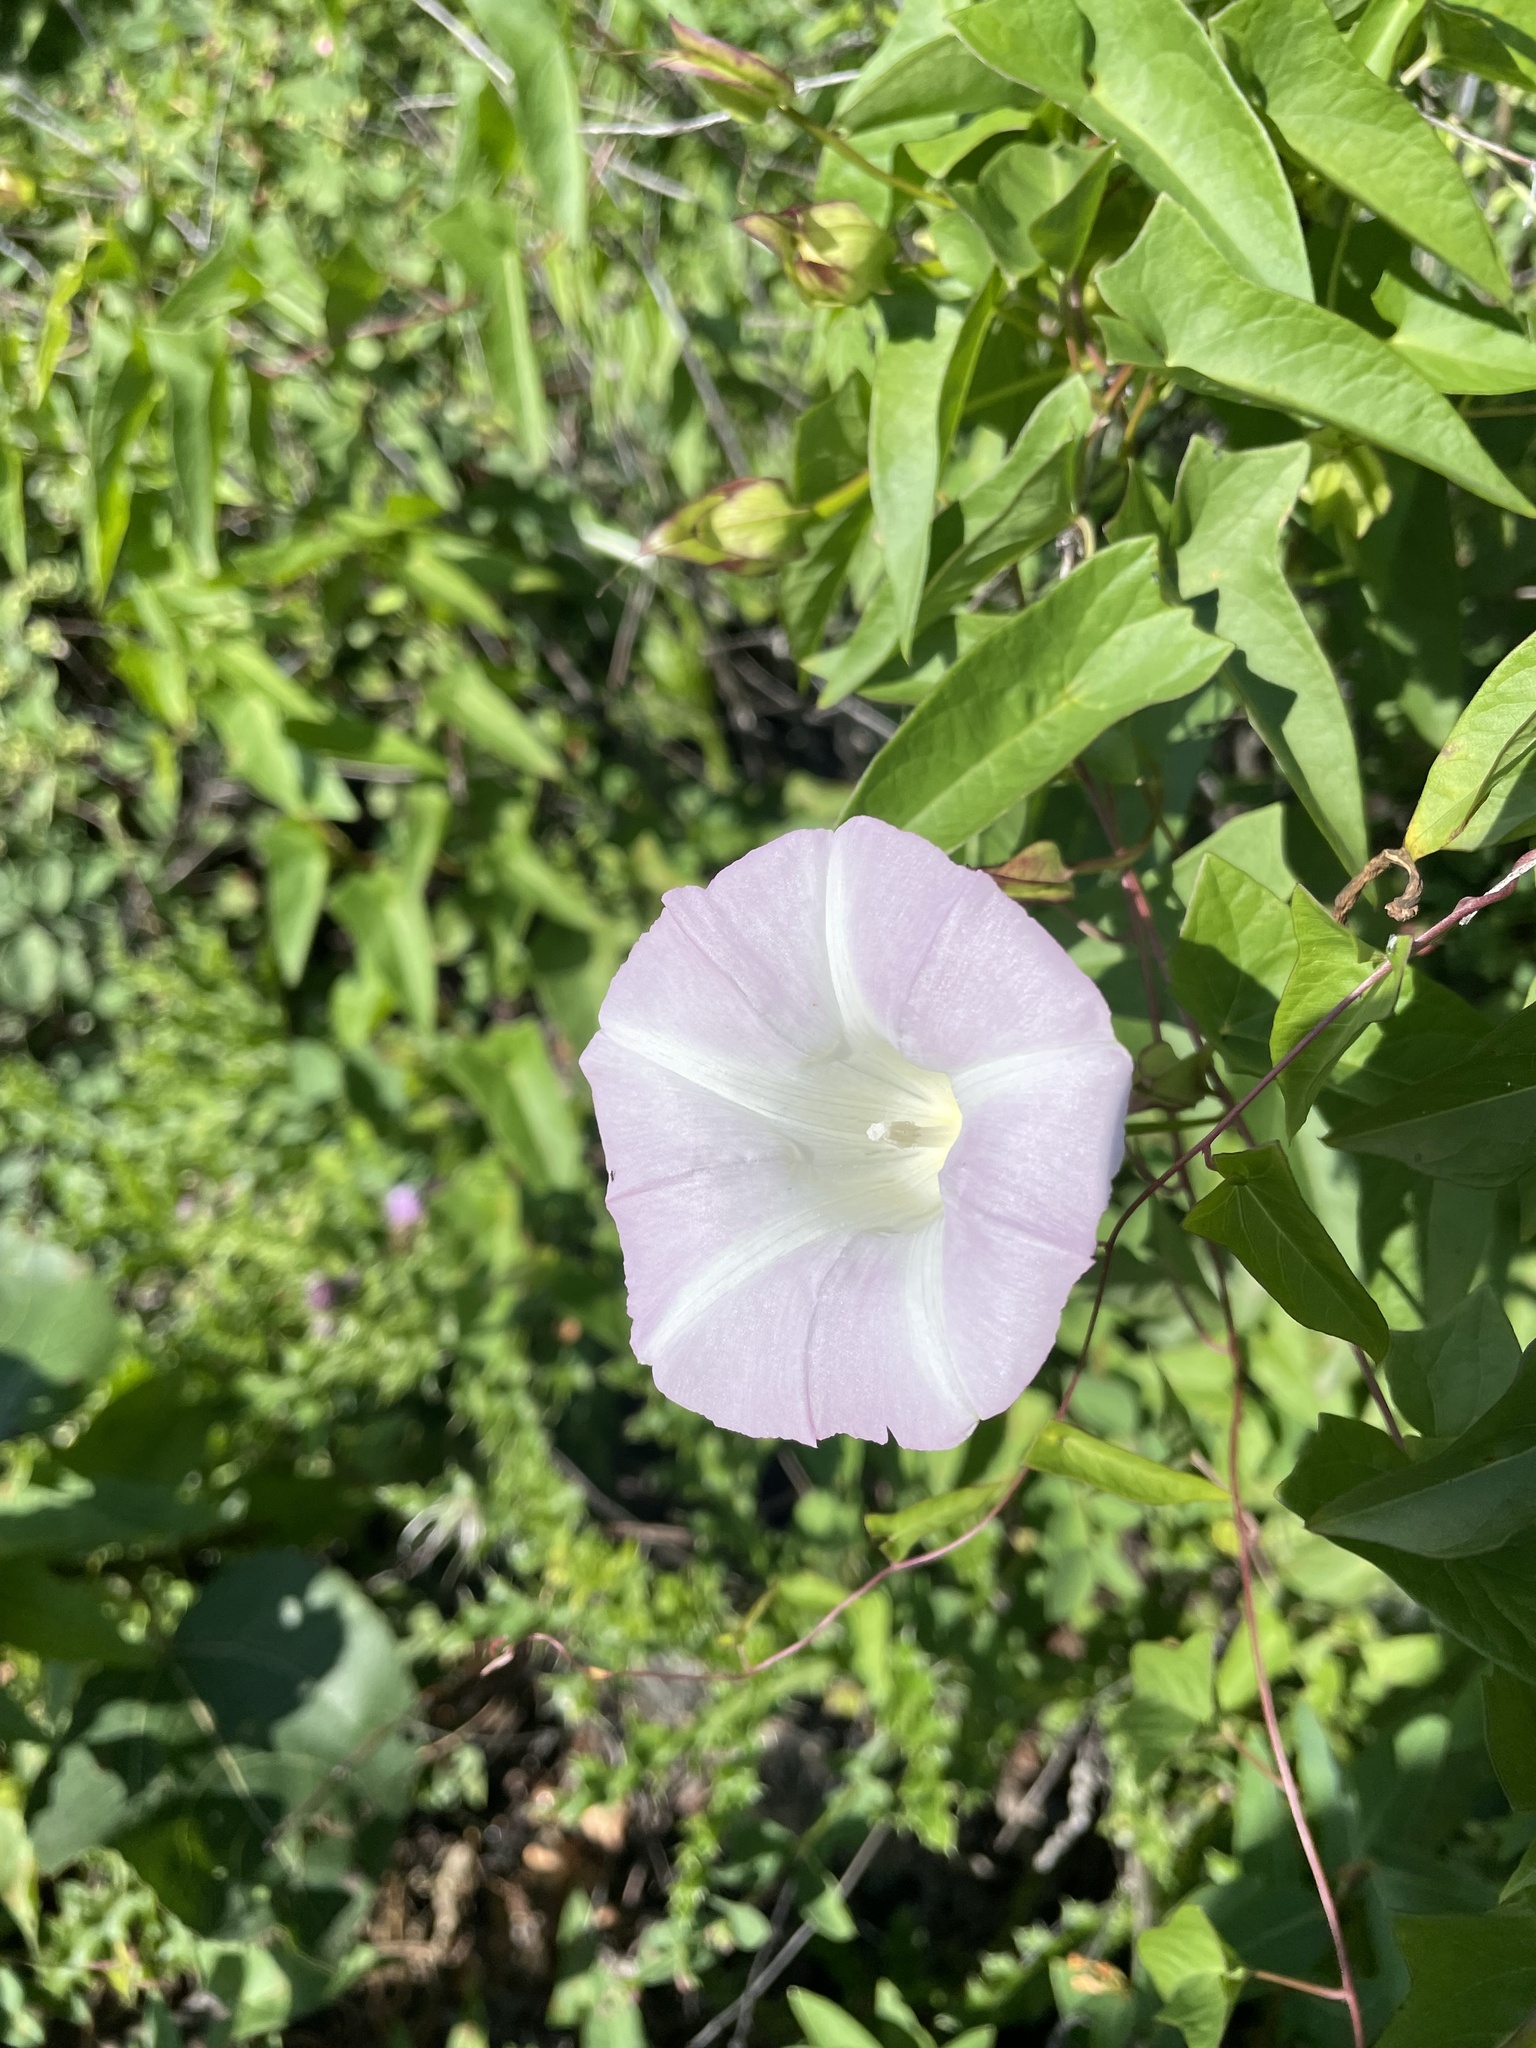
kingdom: Plantae
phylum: Tracheophyta
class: Magnoliopsida
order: Solanales
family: Convolvulaceae
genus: Calystegia
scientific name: Calystegia sepium
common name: Hedge bindweed
